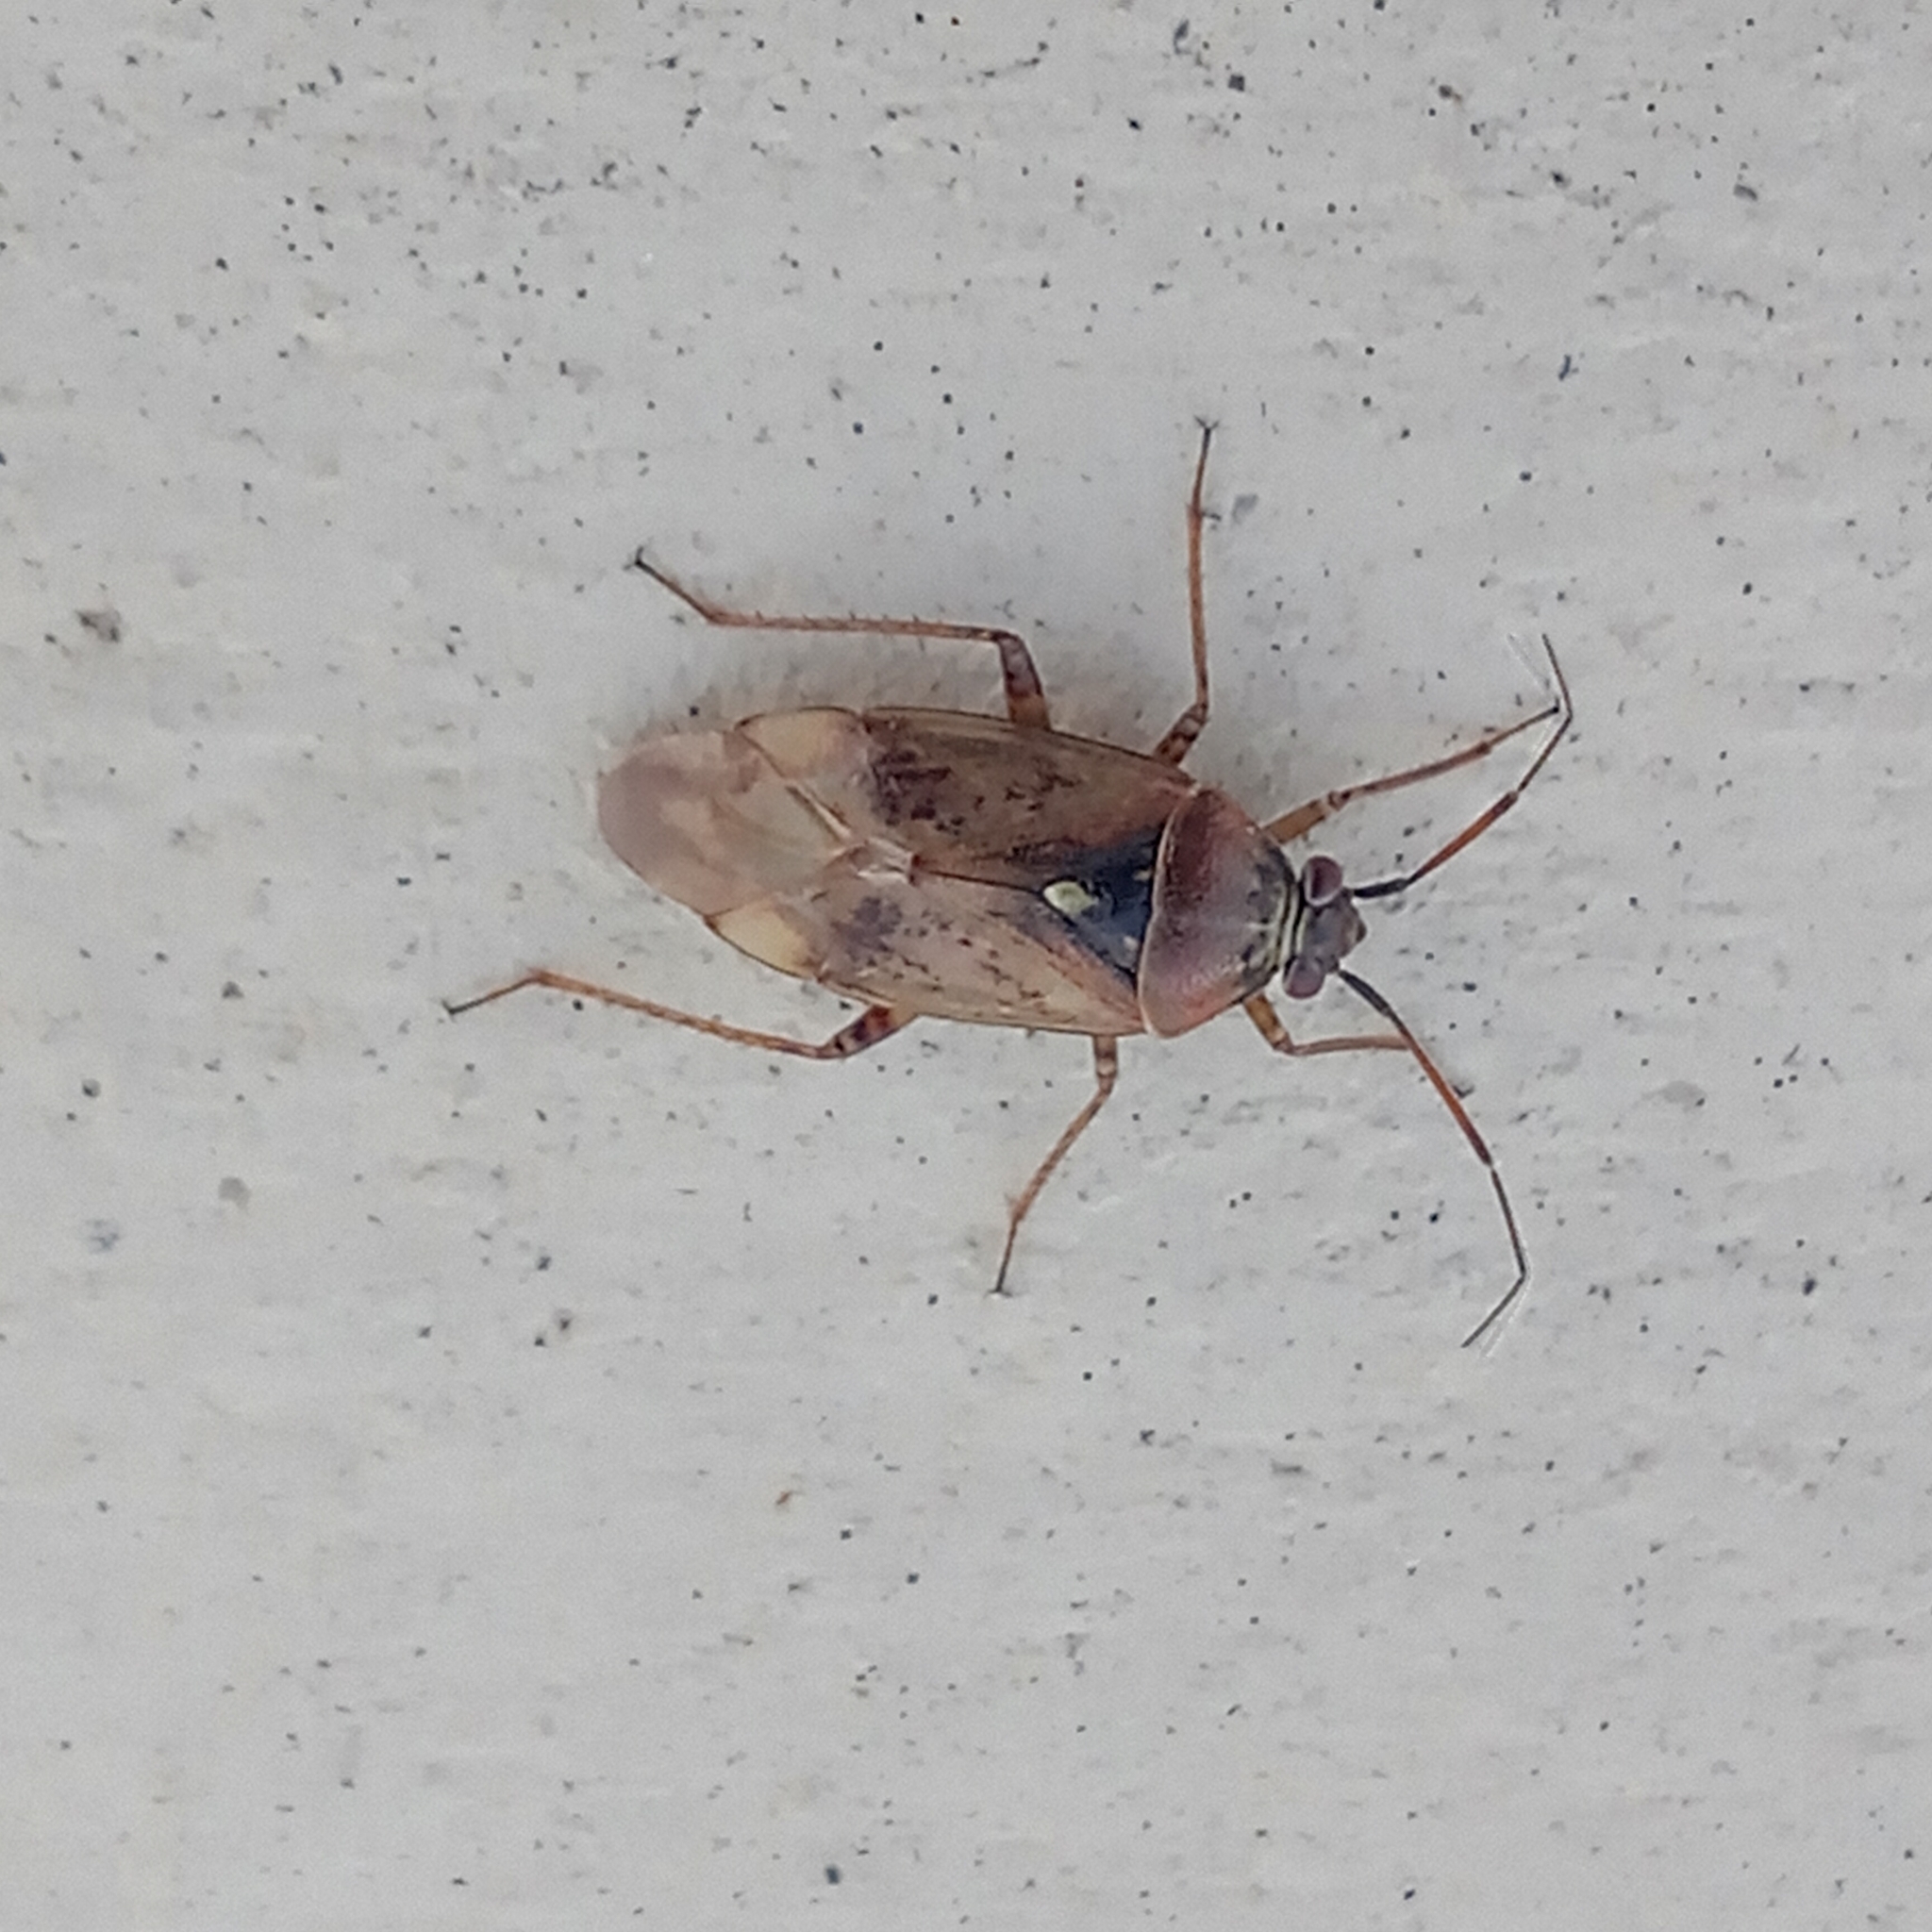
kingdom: Animalia
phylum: Arthropoda
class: Insecta
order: Hemiptera
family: Miridae
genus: Lygus
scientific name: Lygus rugulipennis
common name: European tarnished plant bug
